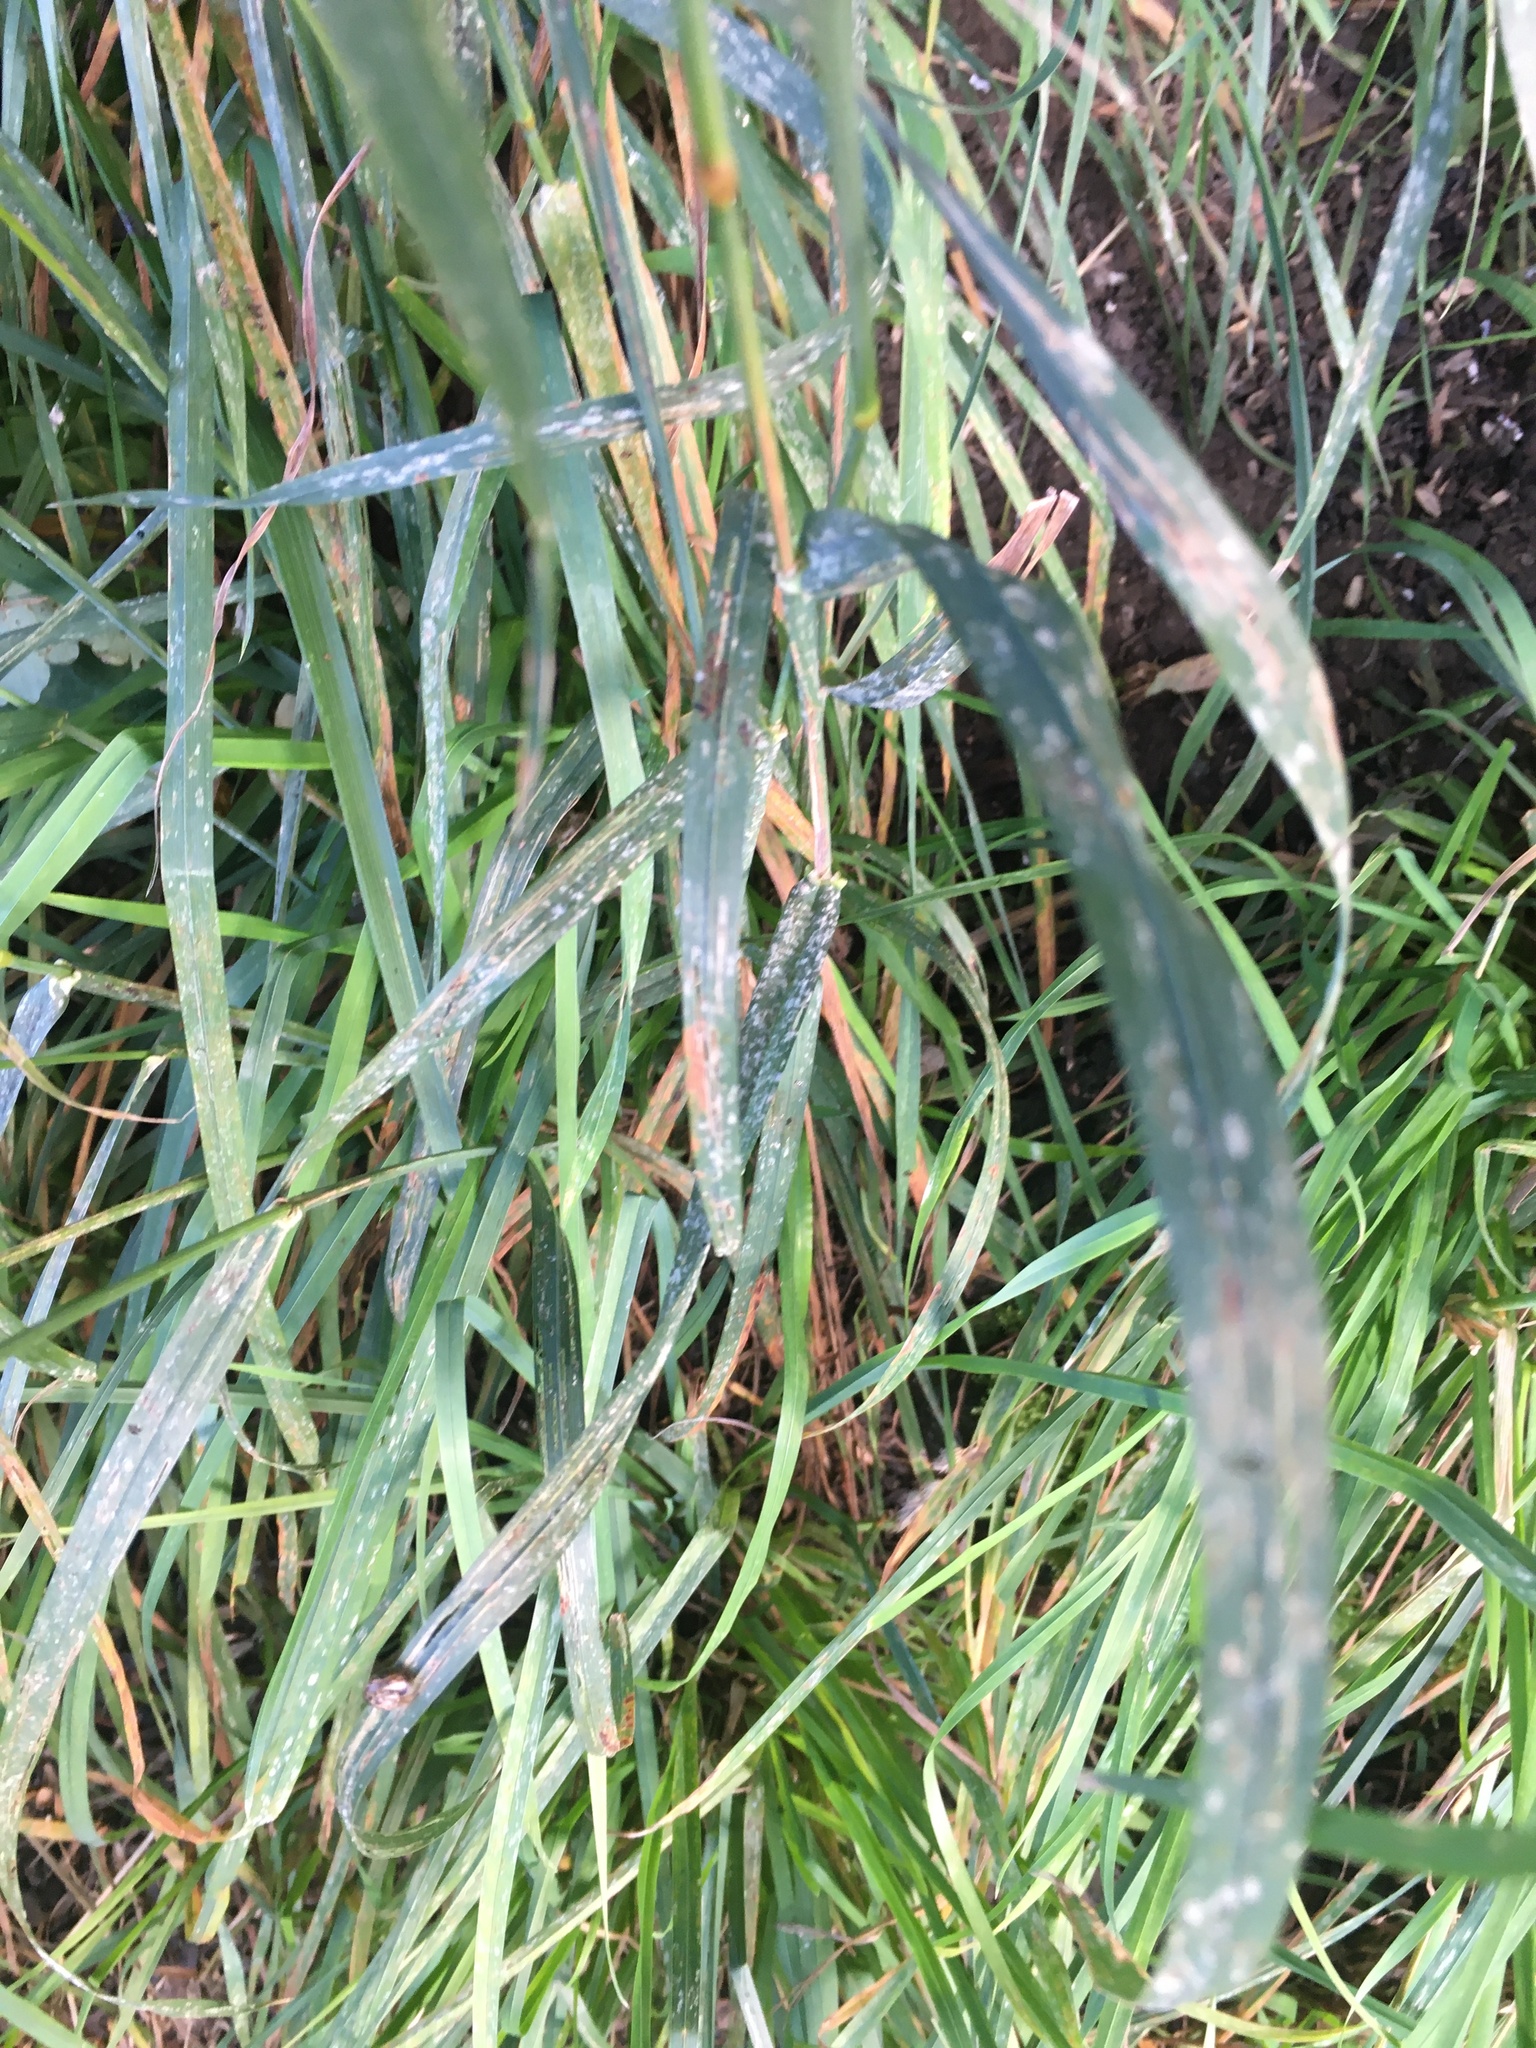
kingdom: Plantae
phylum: Tracheophyta
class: Liliopsida
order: Poales
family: Poaceae
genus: Dactylis
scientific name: Dactylis glomerata
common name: Orchardgrass
